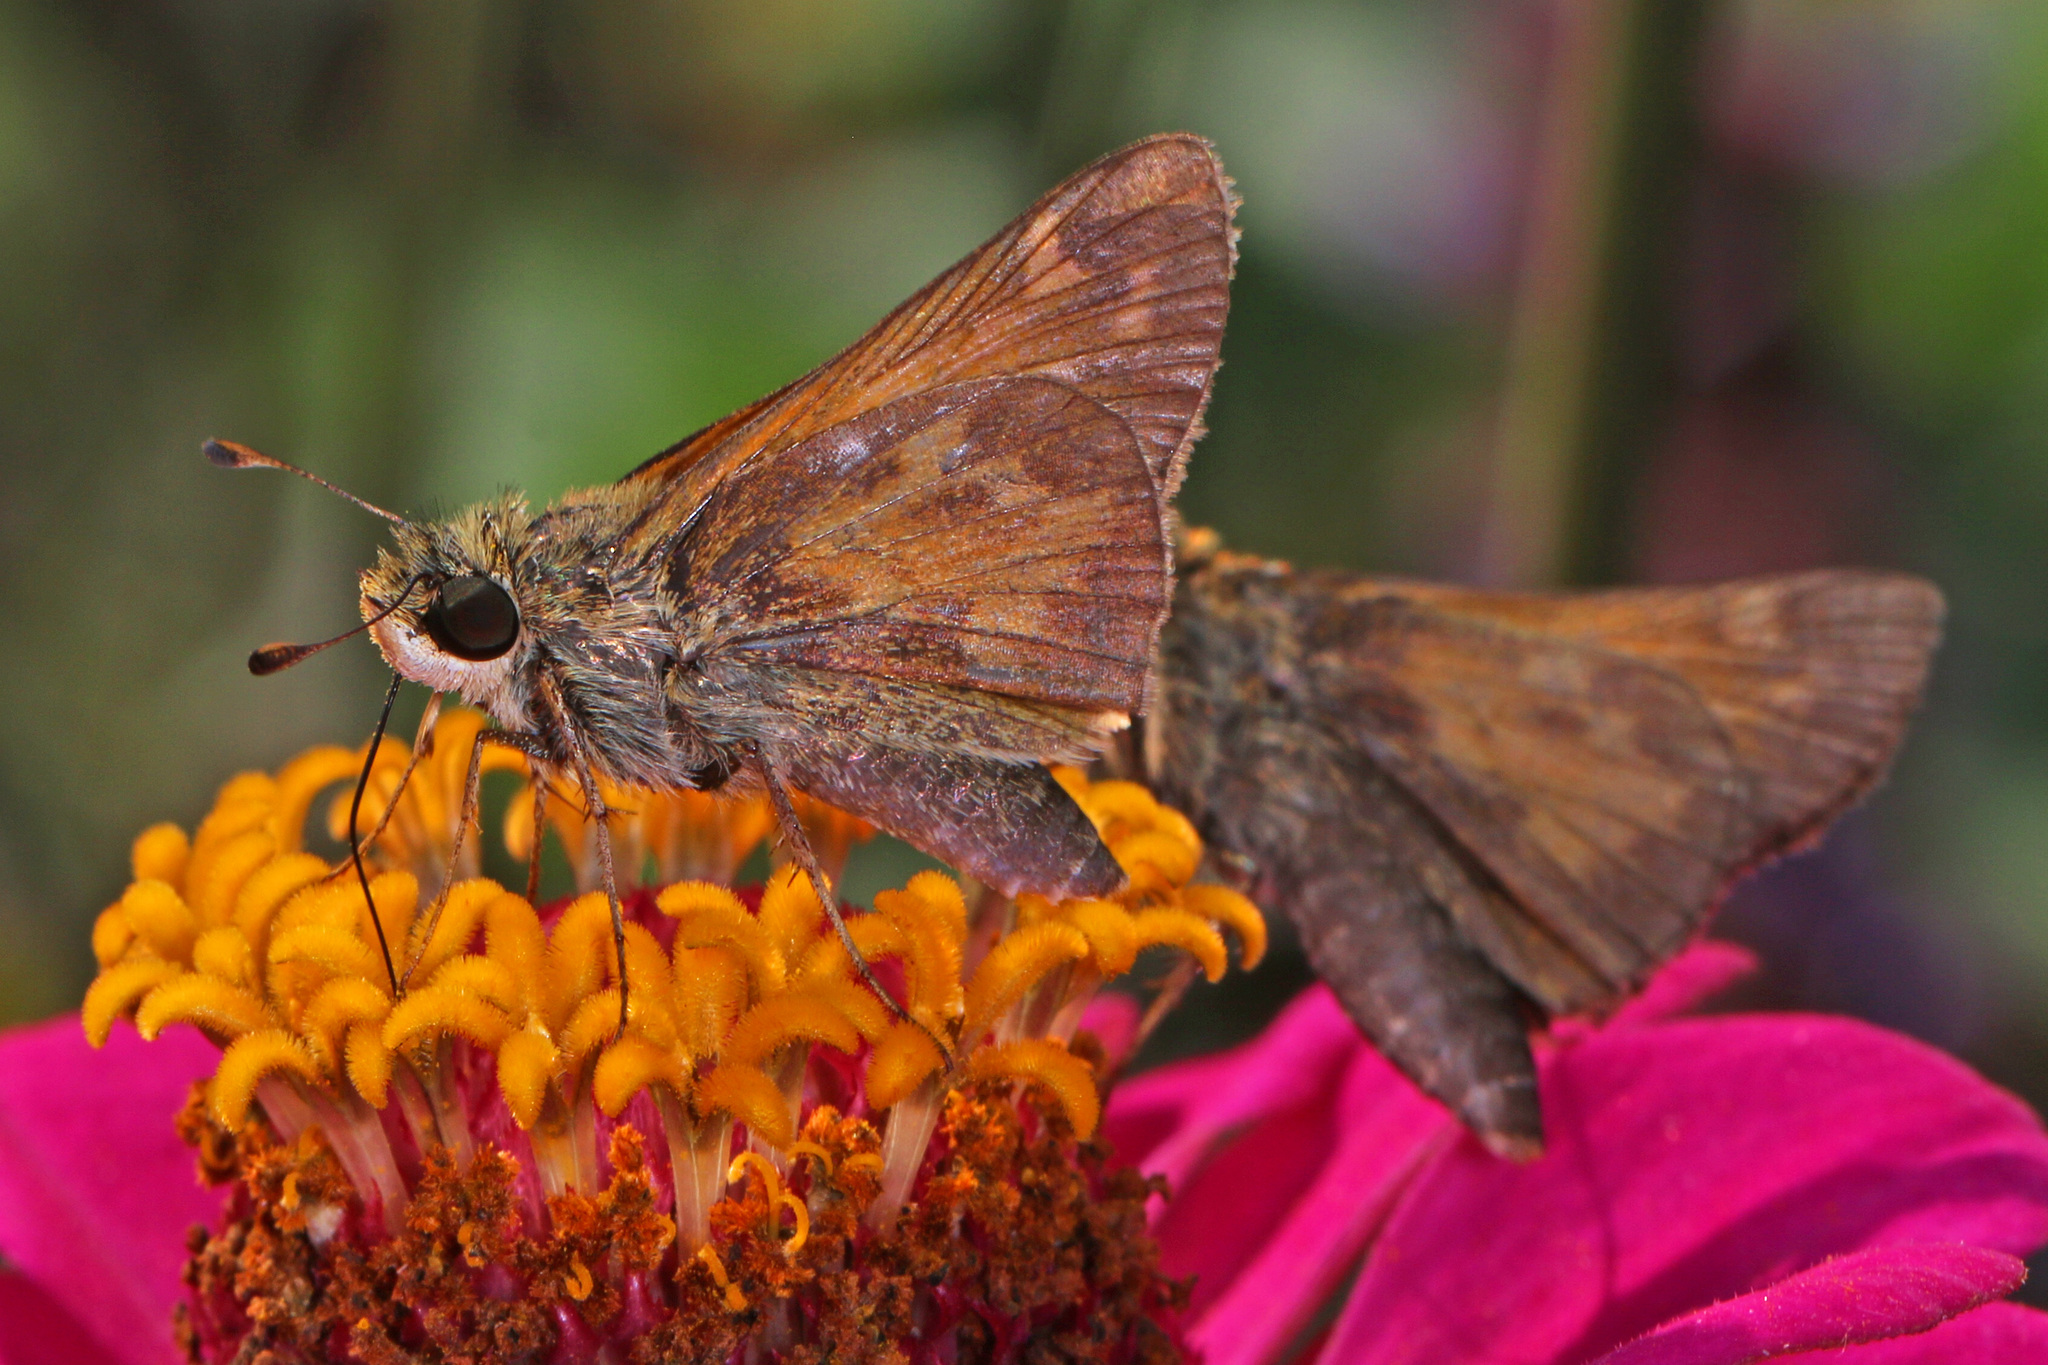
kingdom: Animalia
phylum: Arthropoda
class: Insecta
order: Lepidoptera
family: Hesperiidae
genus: Atalopedes
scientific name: Atalopedes
